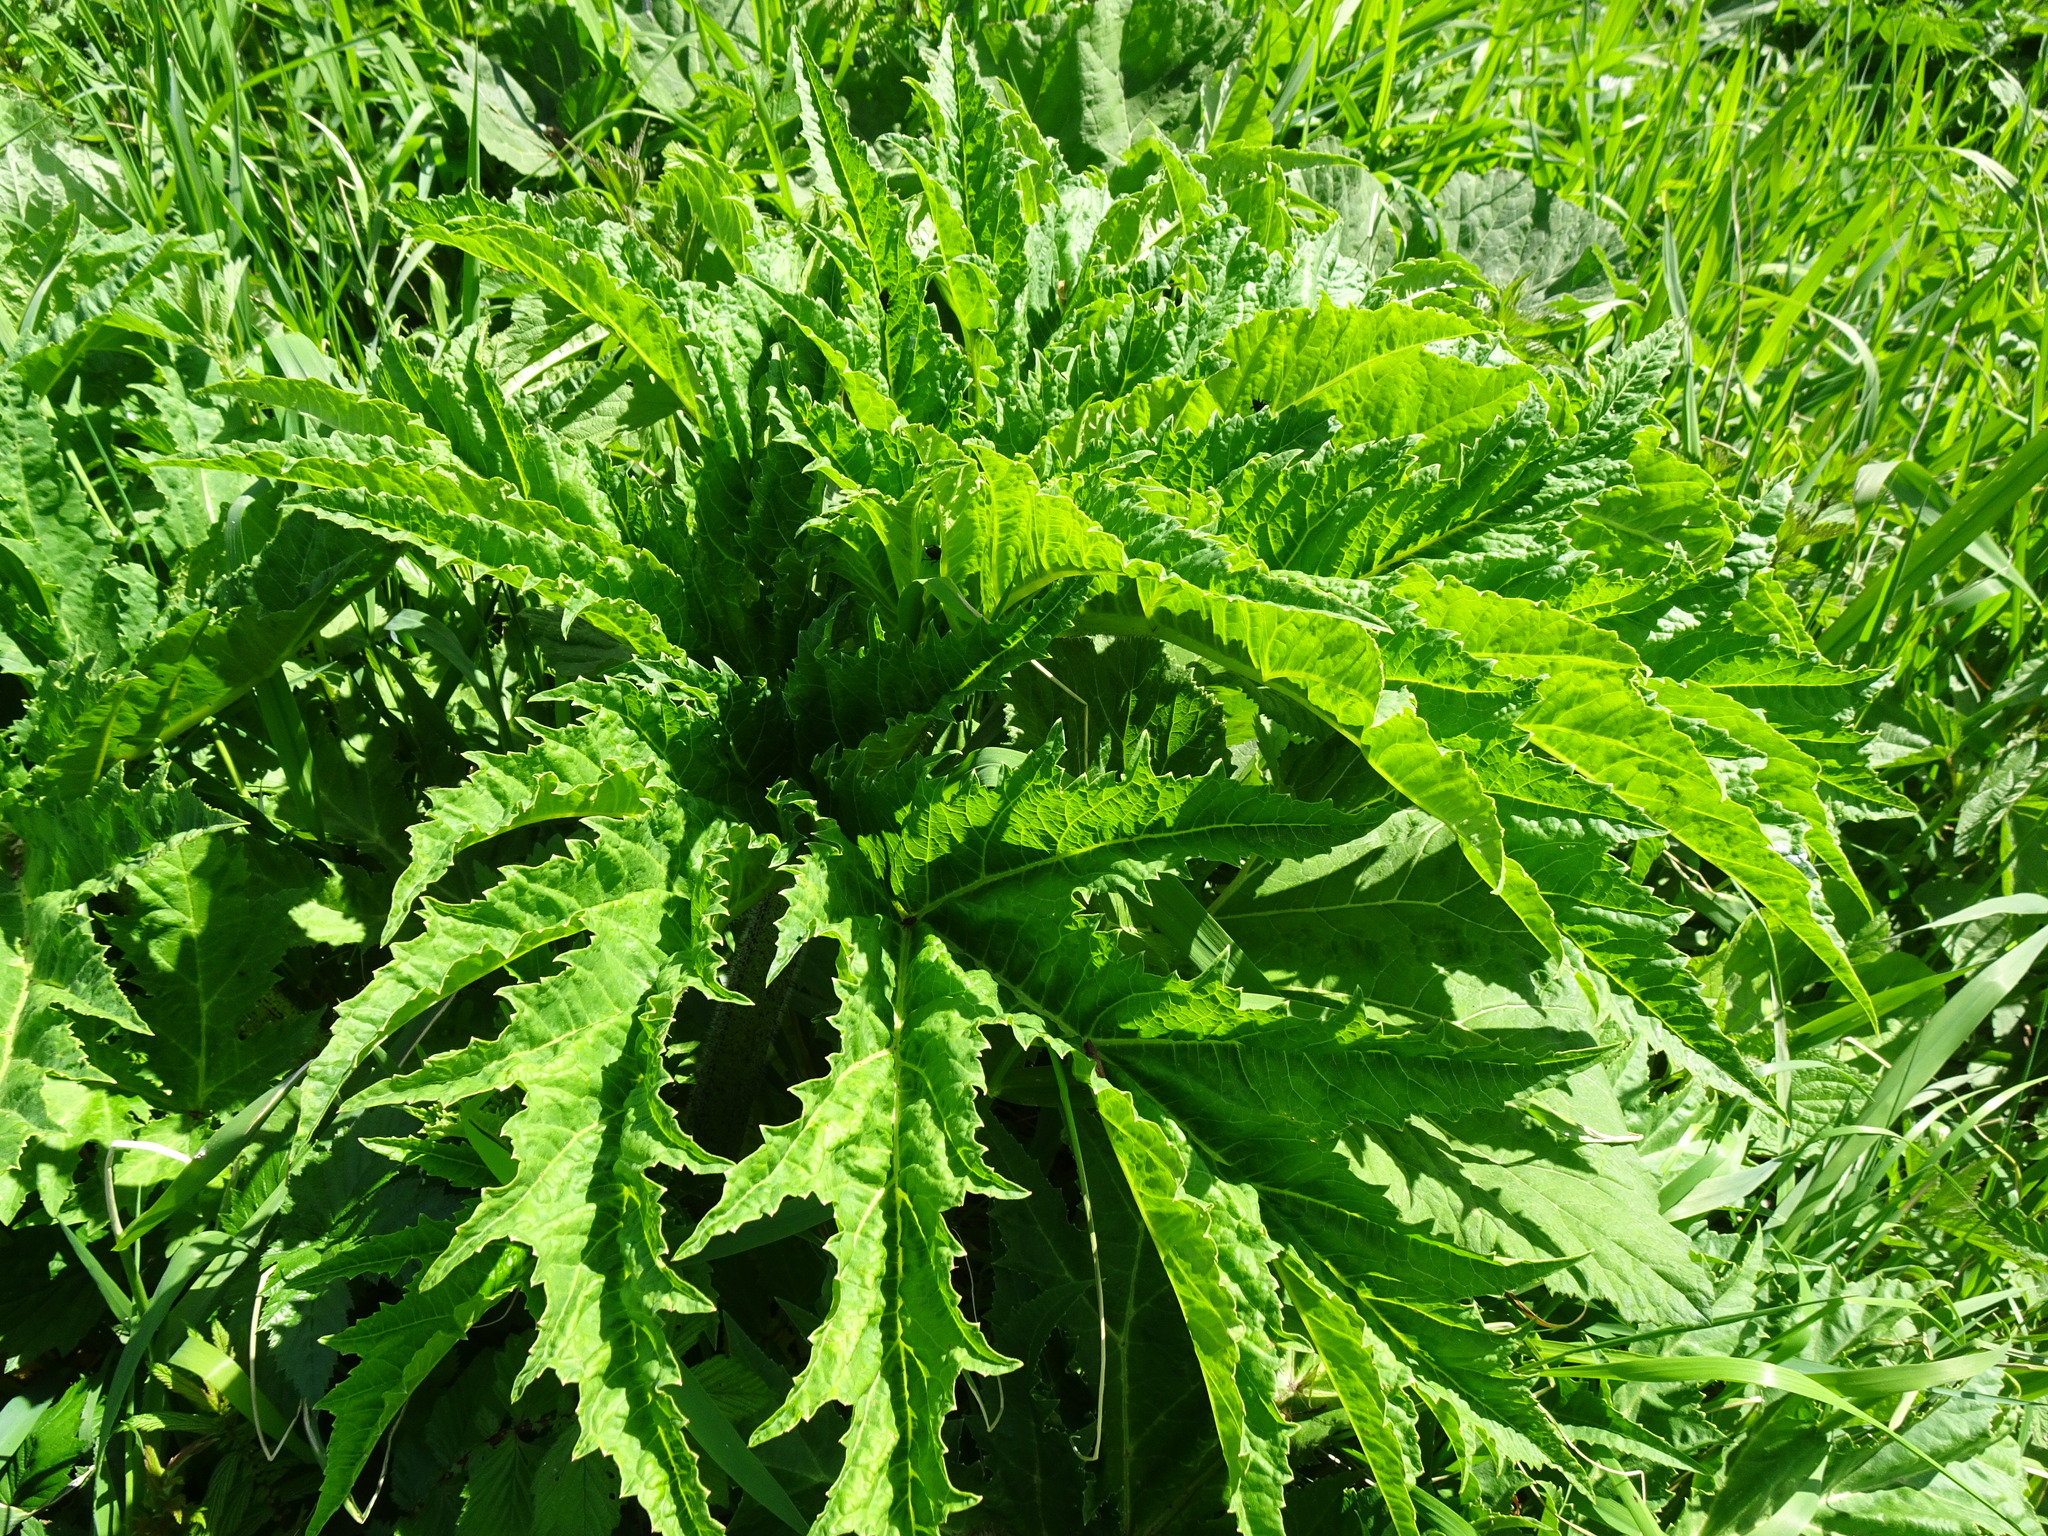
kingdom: Plantae
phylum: Tracheophyta
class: Magnoliopsida
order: Apiales
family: Apiaceae
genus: Heracleum
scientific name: Heracleum mantegazzianum
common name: Giant hogweed
